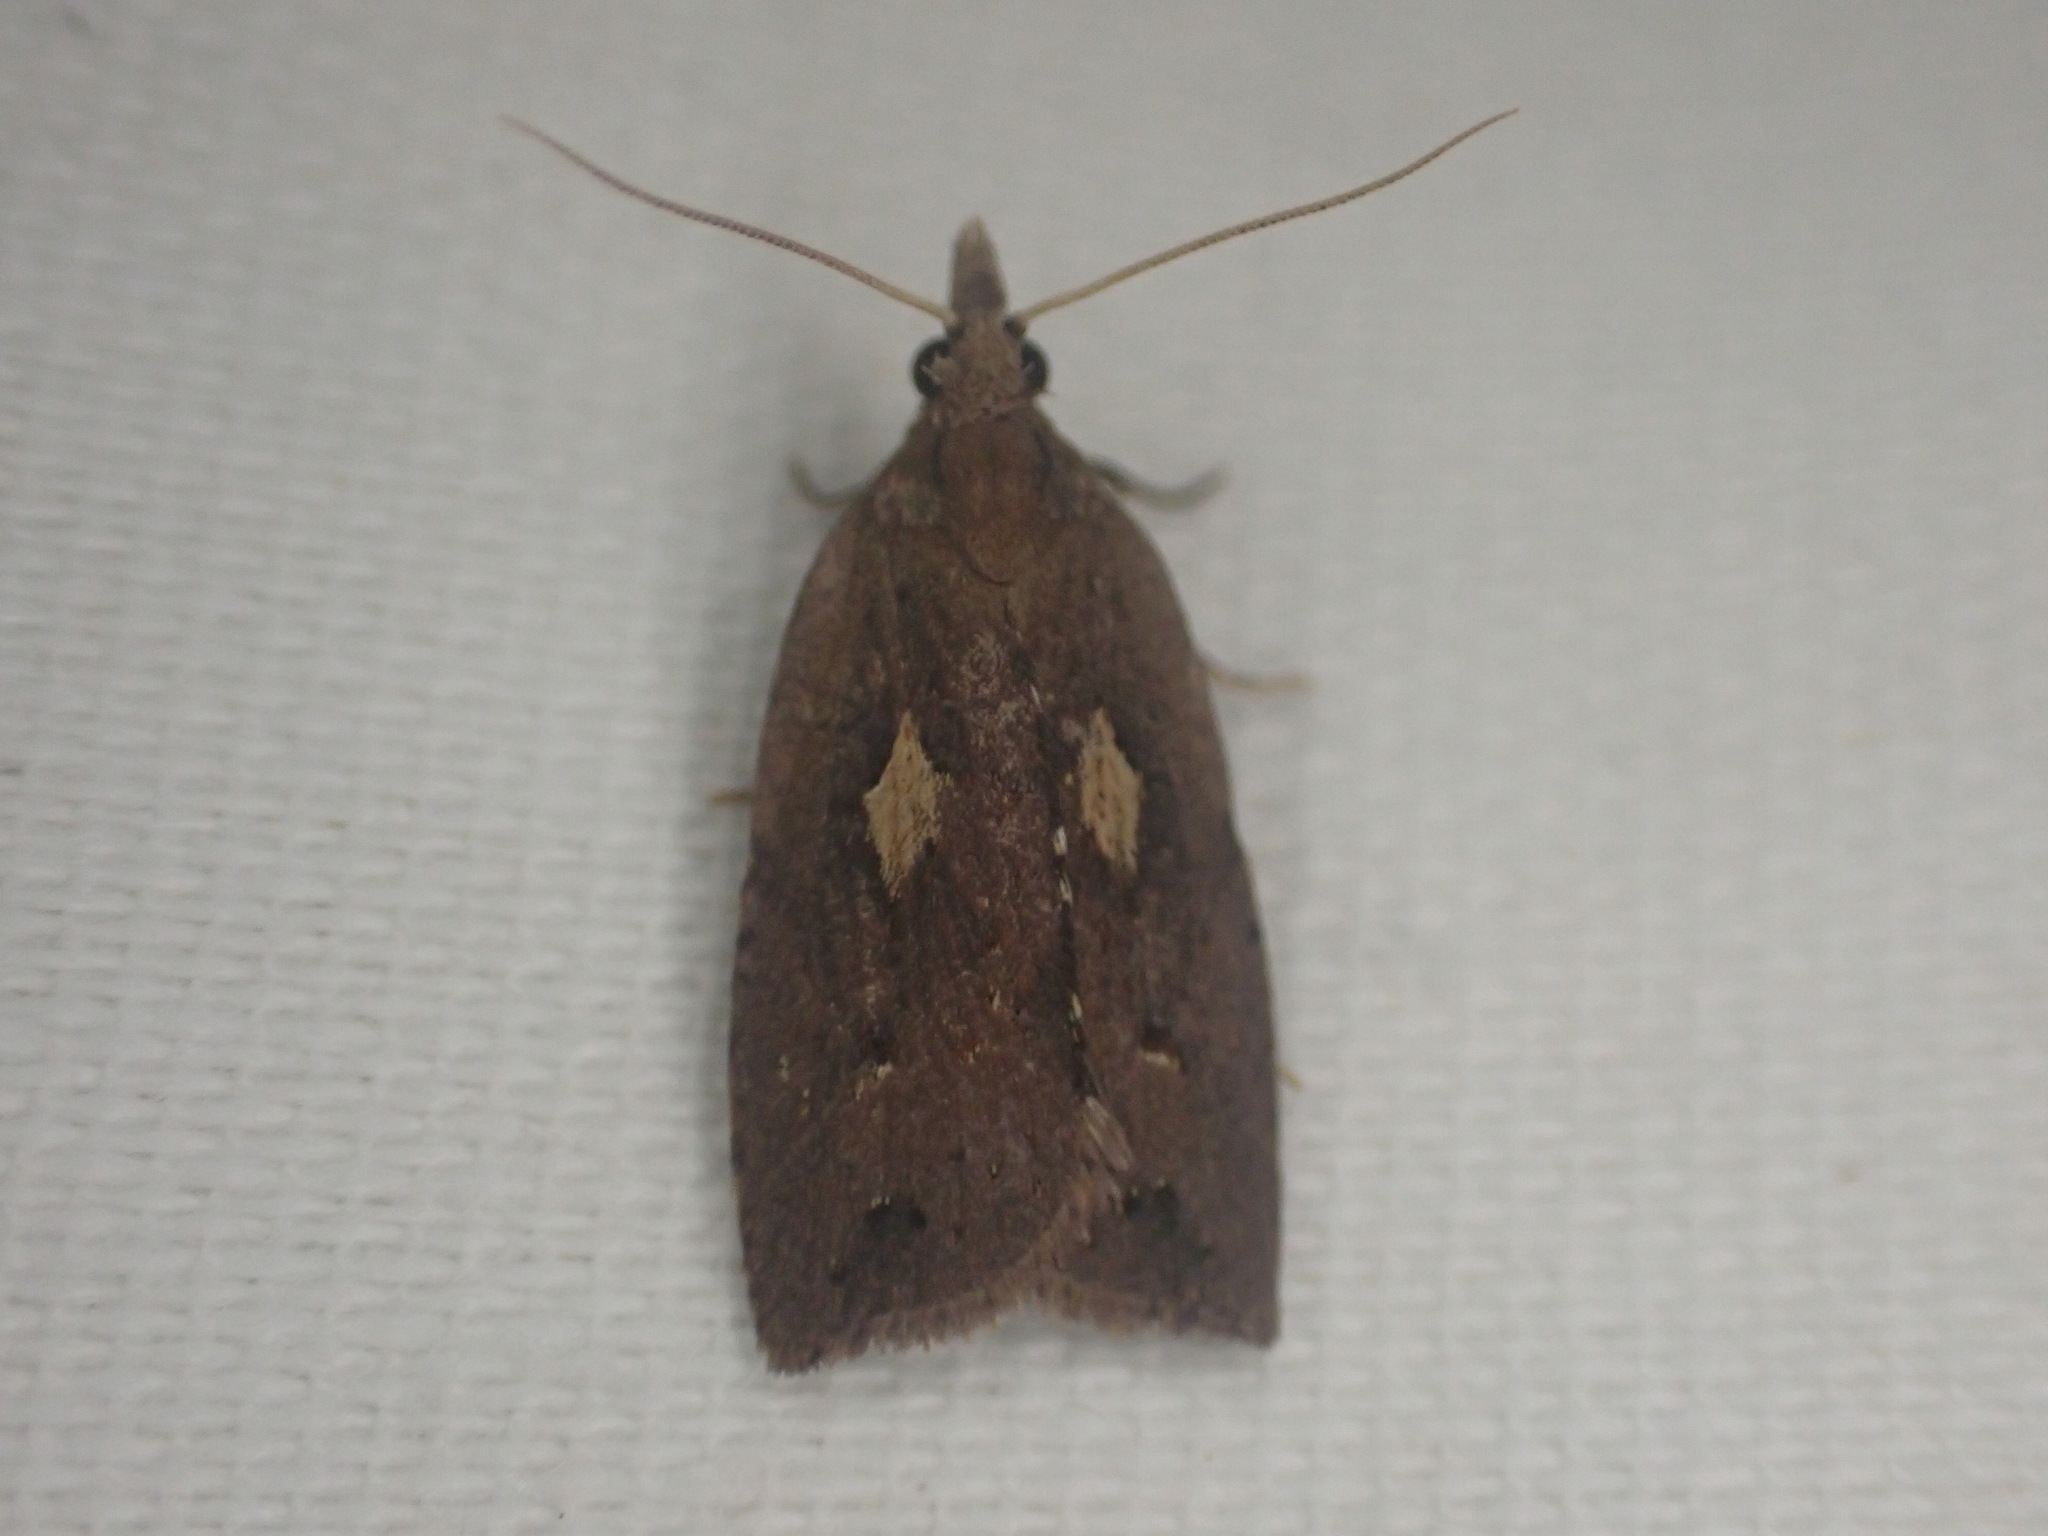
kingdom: Animalia
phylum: Arthropoda
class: Insecta
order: Lepidoptera
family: Tortricidae
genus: Planotortrix
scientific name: Planotortrix notophaea
